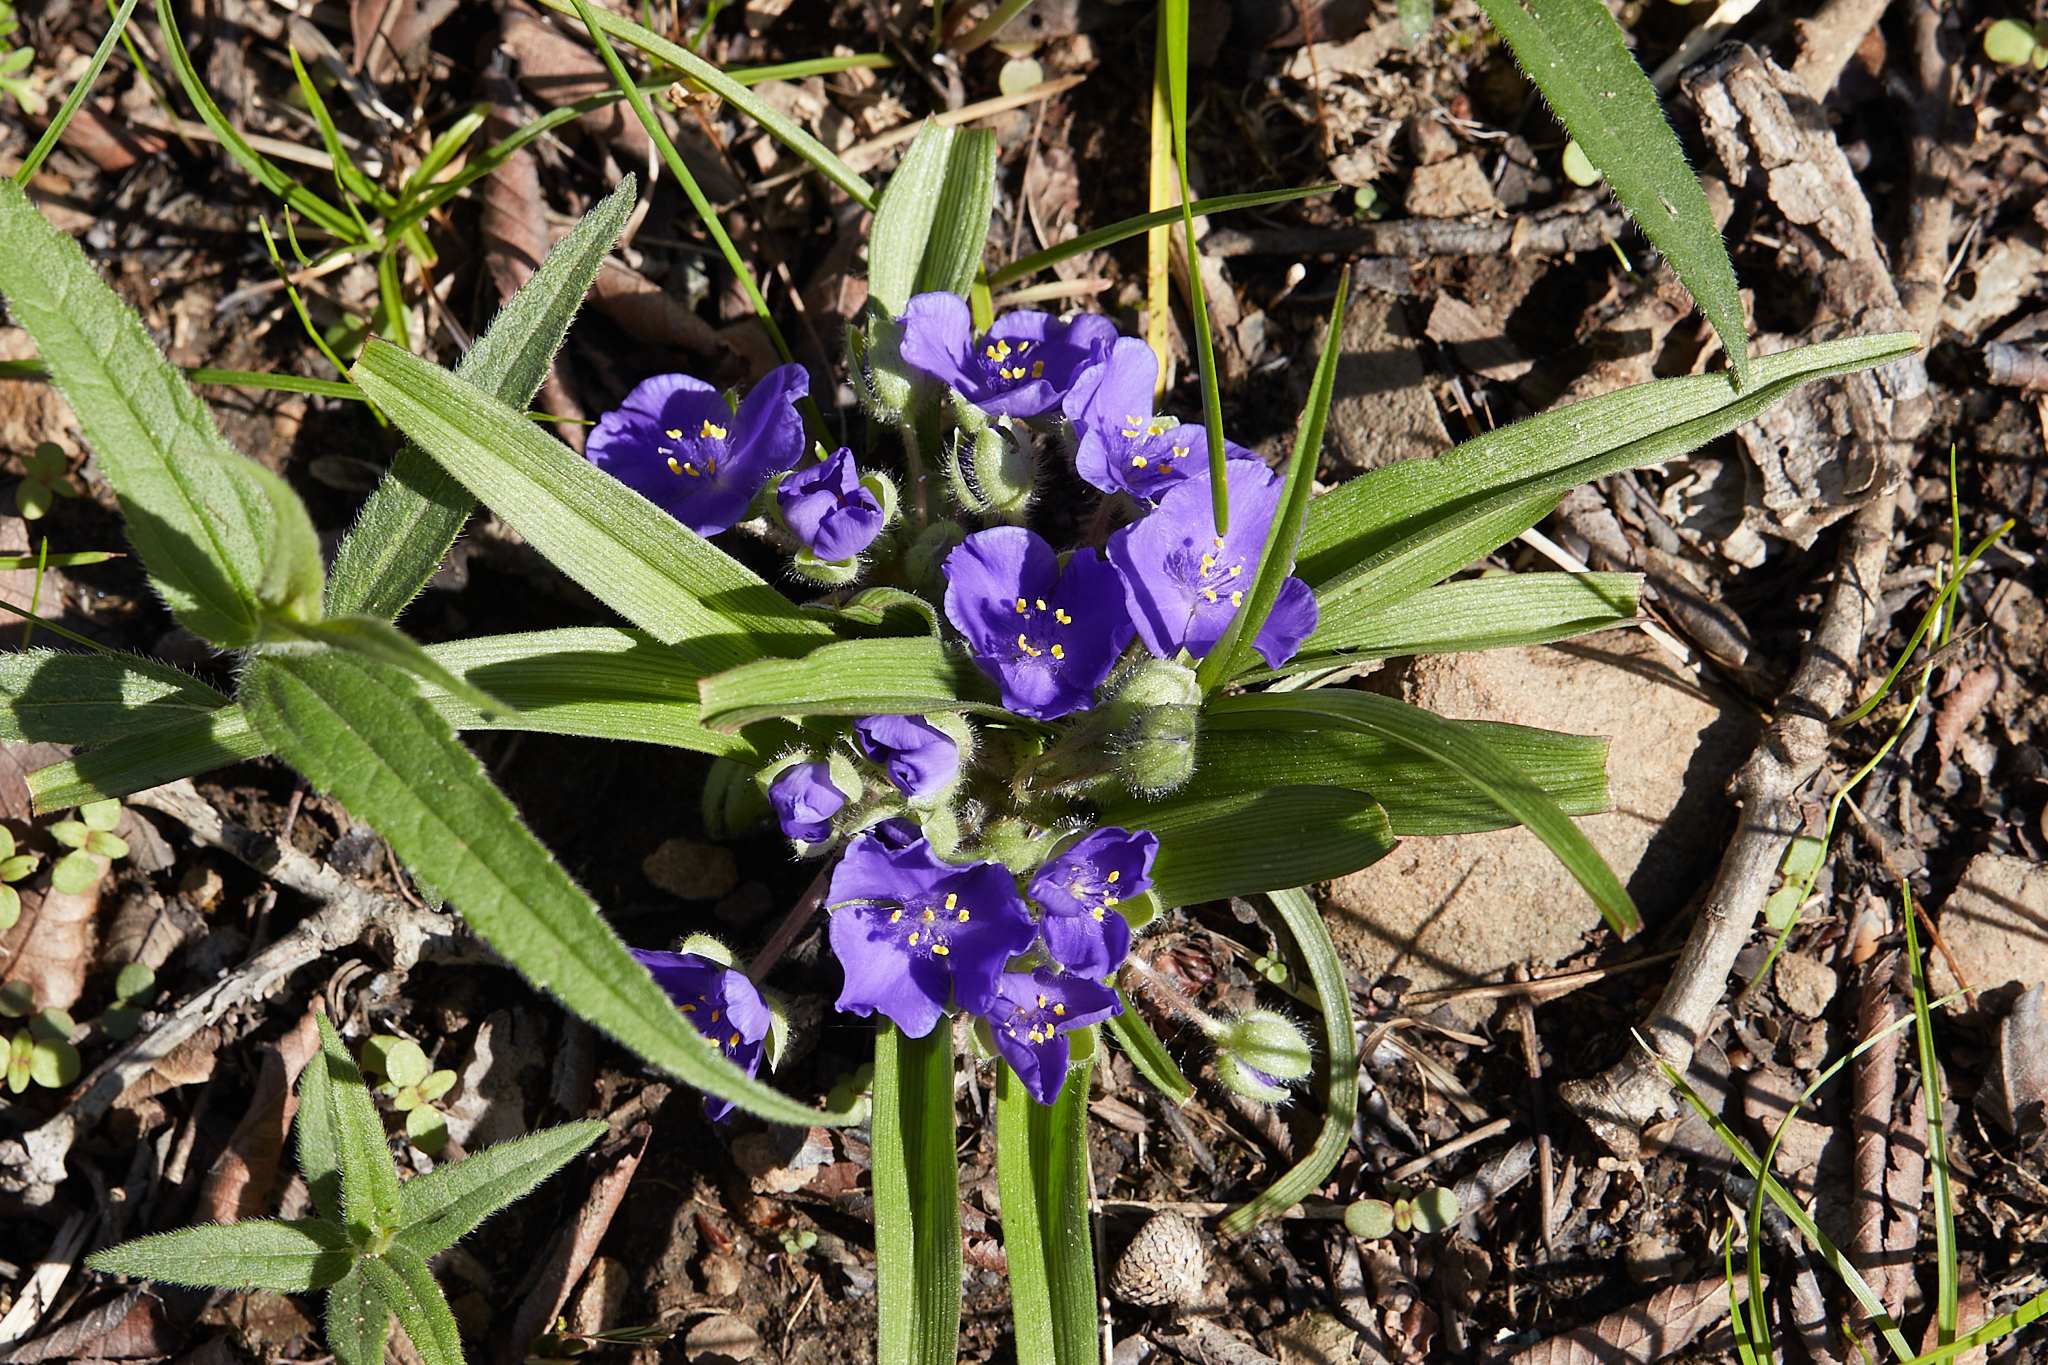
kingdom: Plantae
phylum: Tracheophyta
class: Liliopsida
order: Commelinales
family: Commelinaceae
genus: Tradescantia
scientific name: Tradescantia virginiana
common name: Spiderwort
